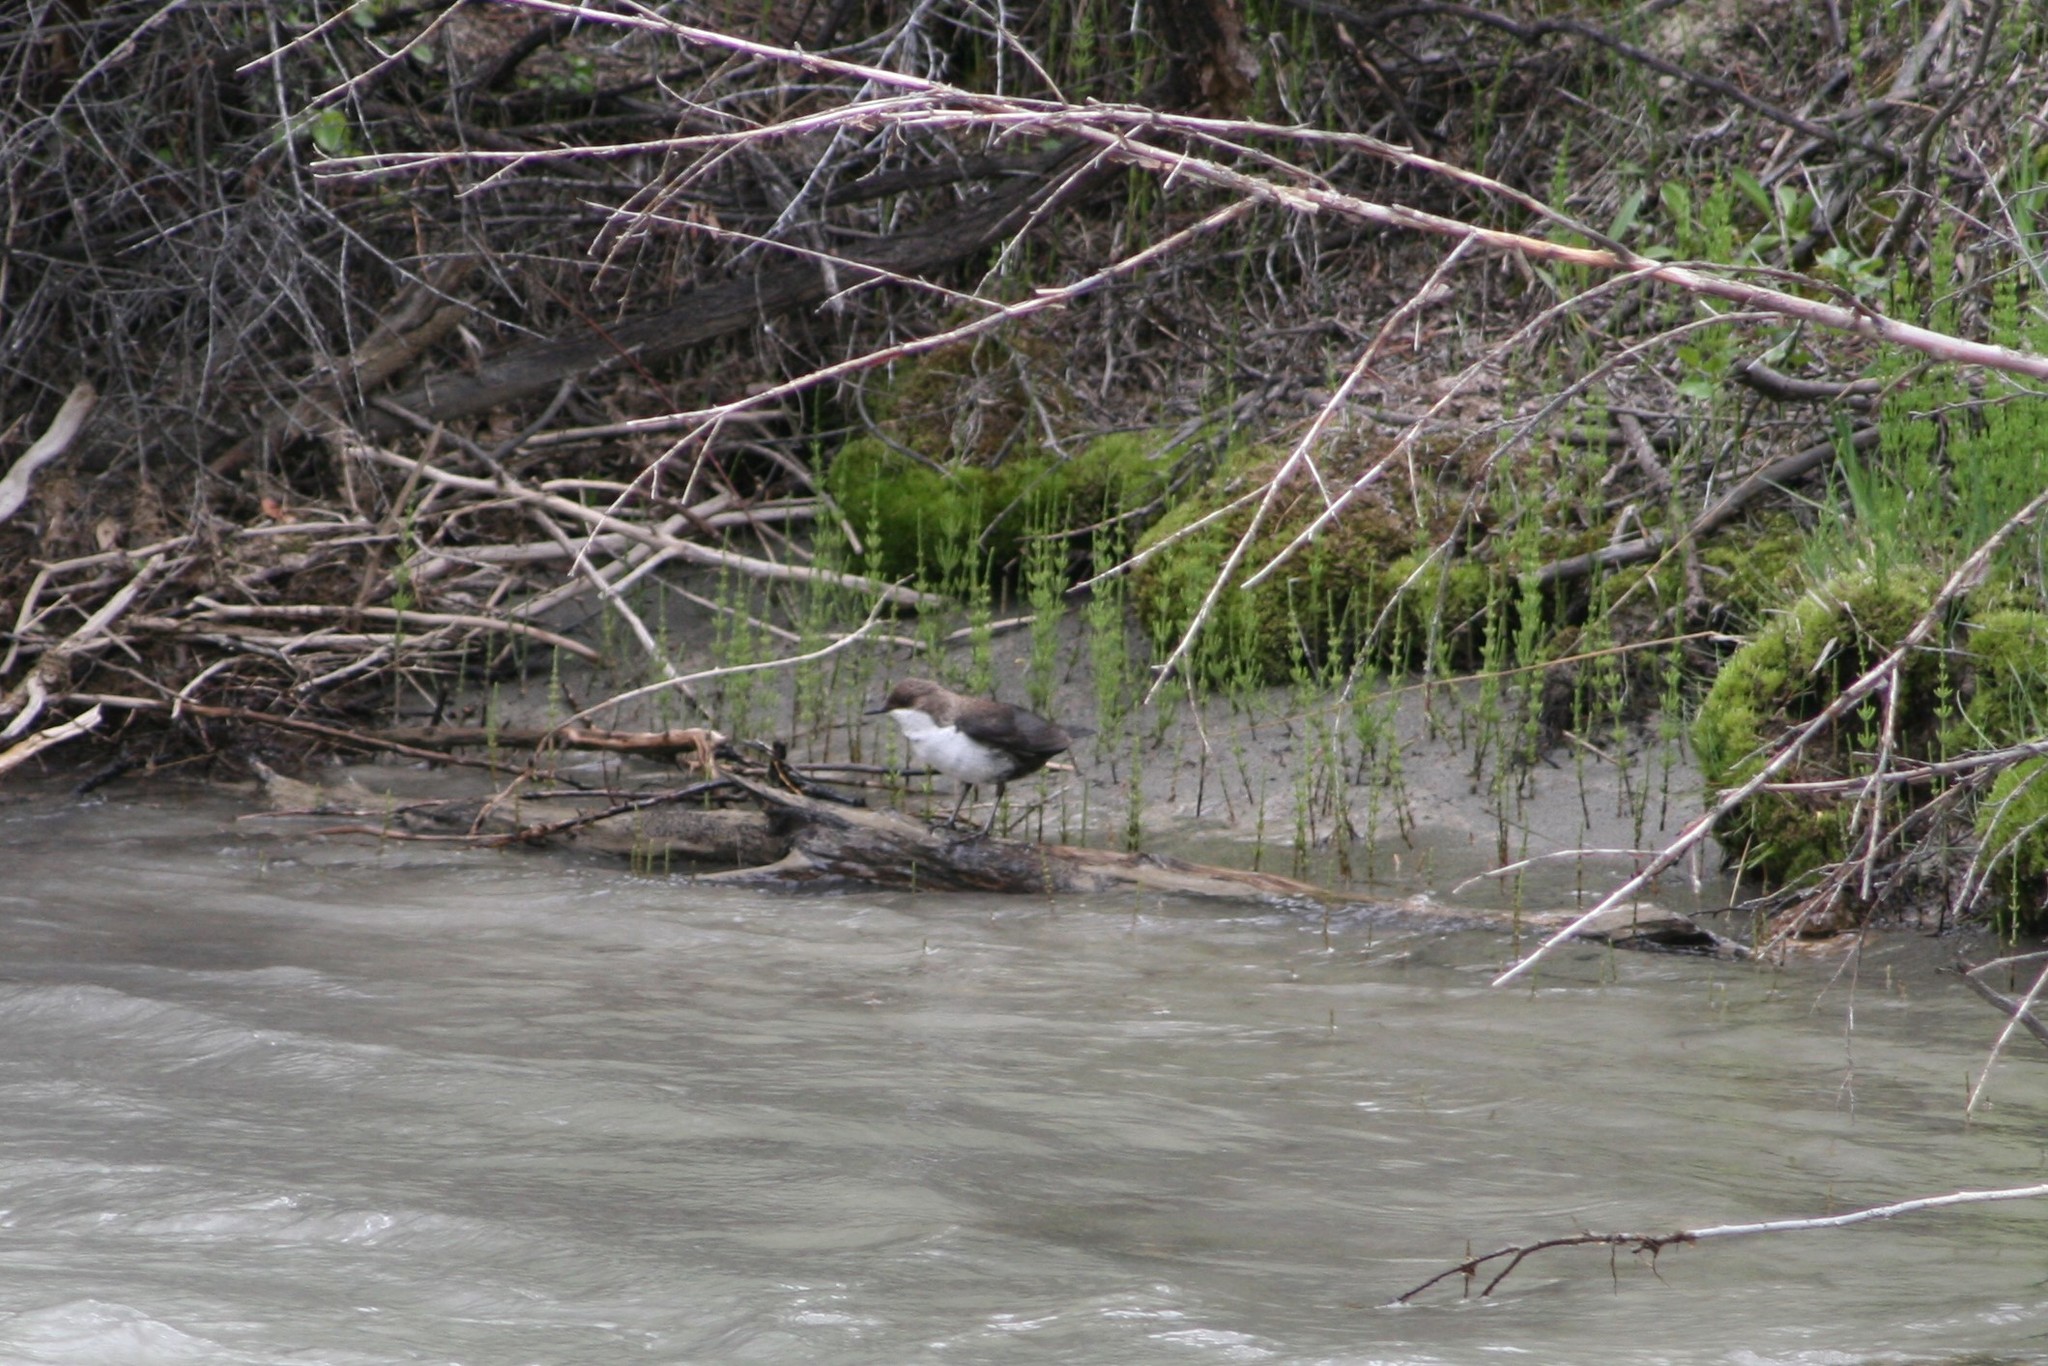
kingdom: Animalia
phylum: Chordata
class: Aves
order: Passeriformes
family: Cinclidae
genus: Cinclus
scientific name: Cinclus cinclus
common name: White-throated dipper
